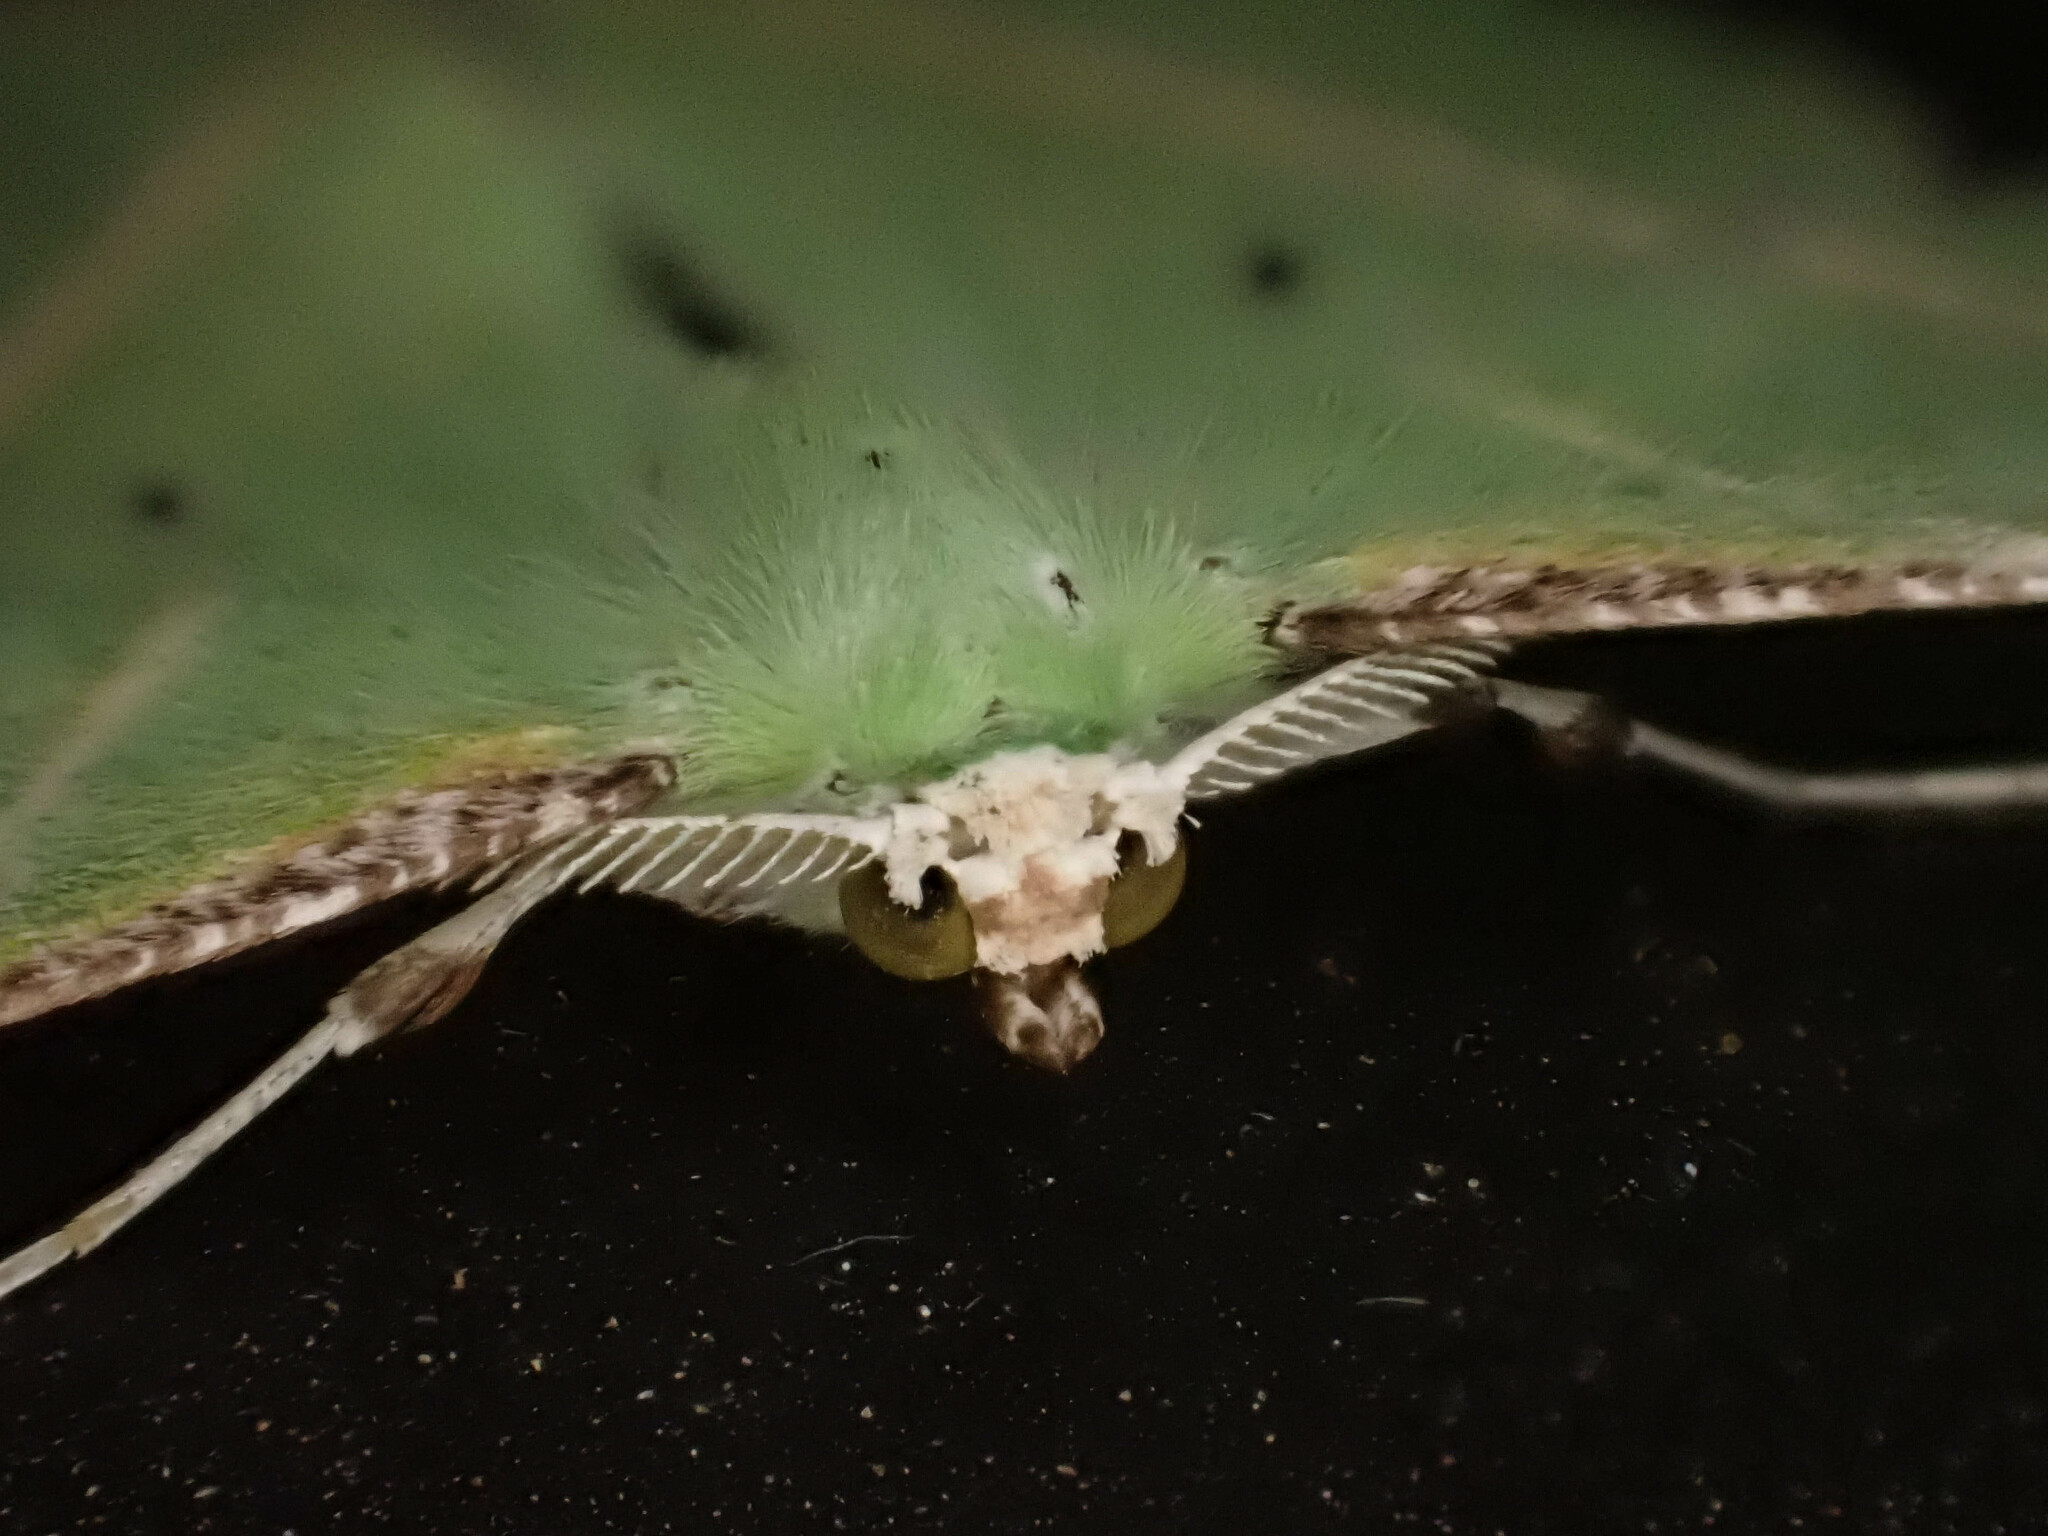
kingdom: Animalia
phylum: Arthropoda
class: Insecta
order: Lepidoptera
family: Geometridae
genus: Dichorda
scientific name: Dichorda illustraria
